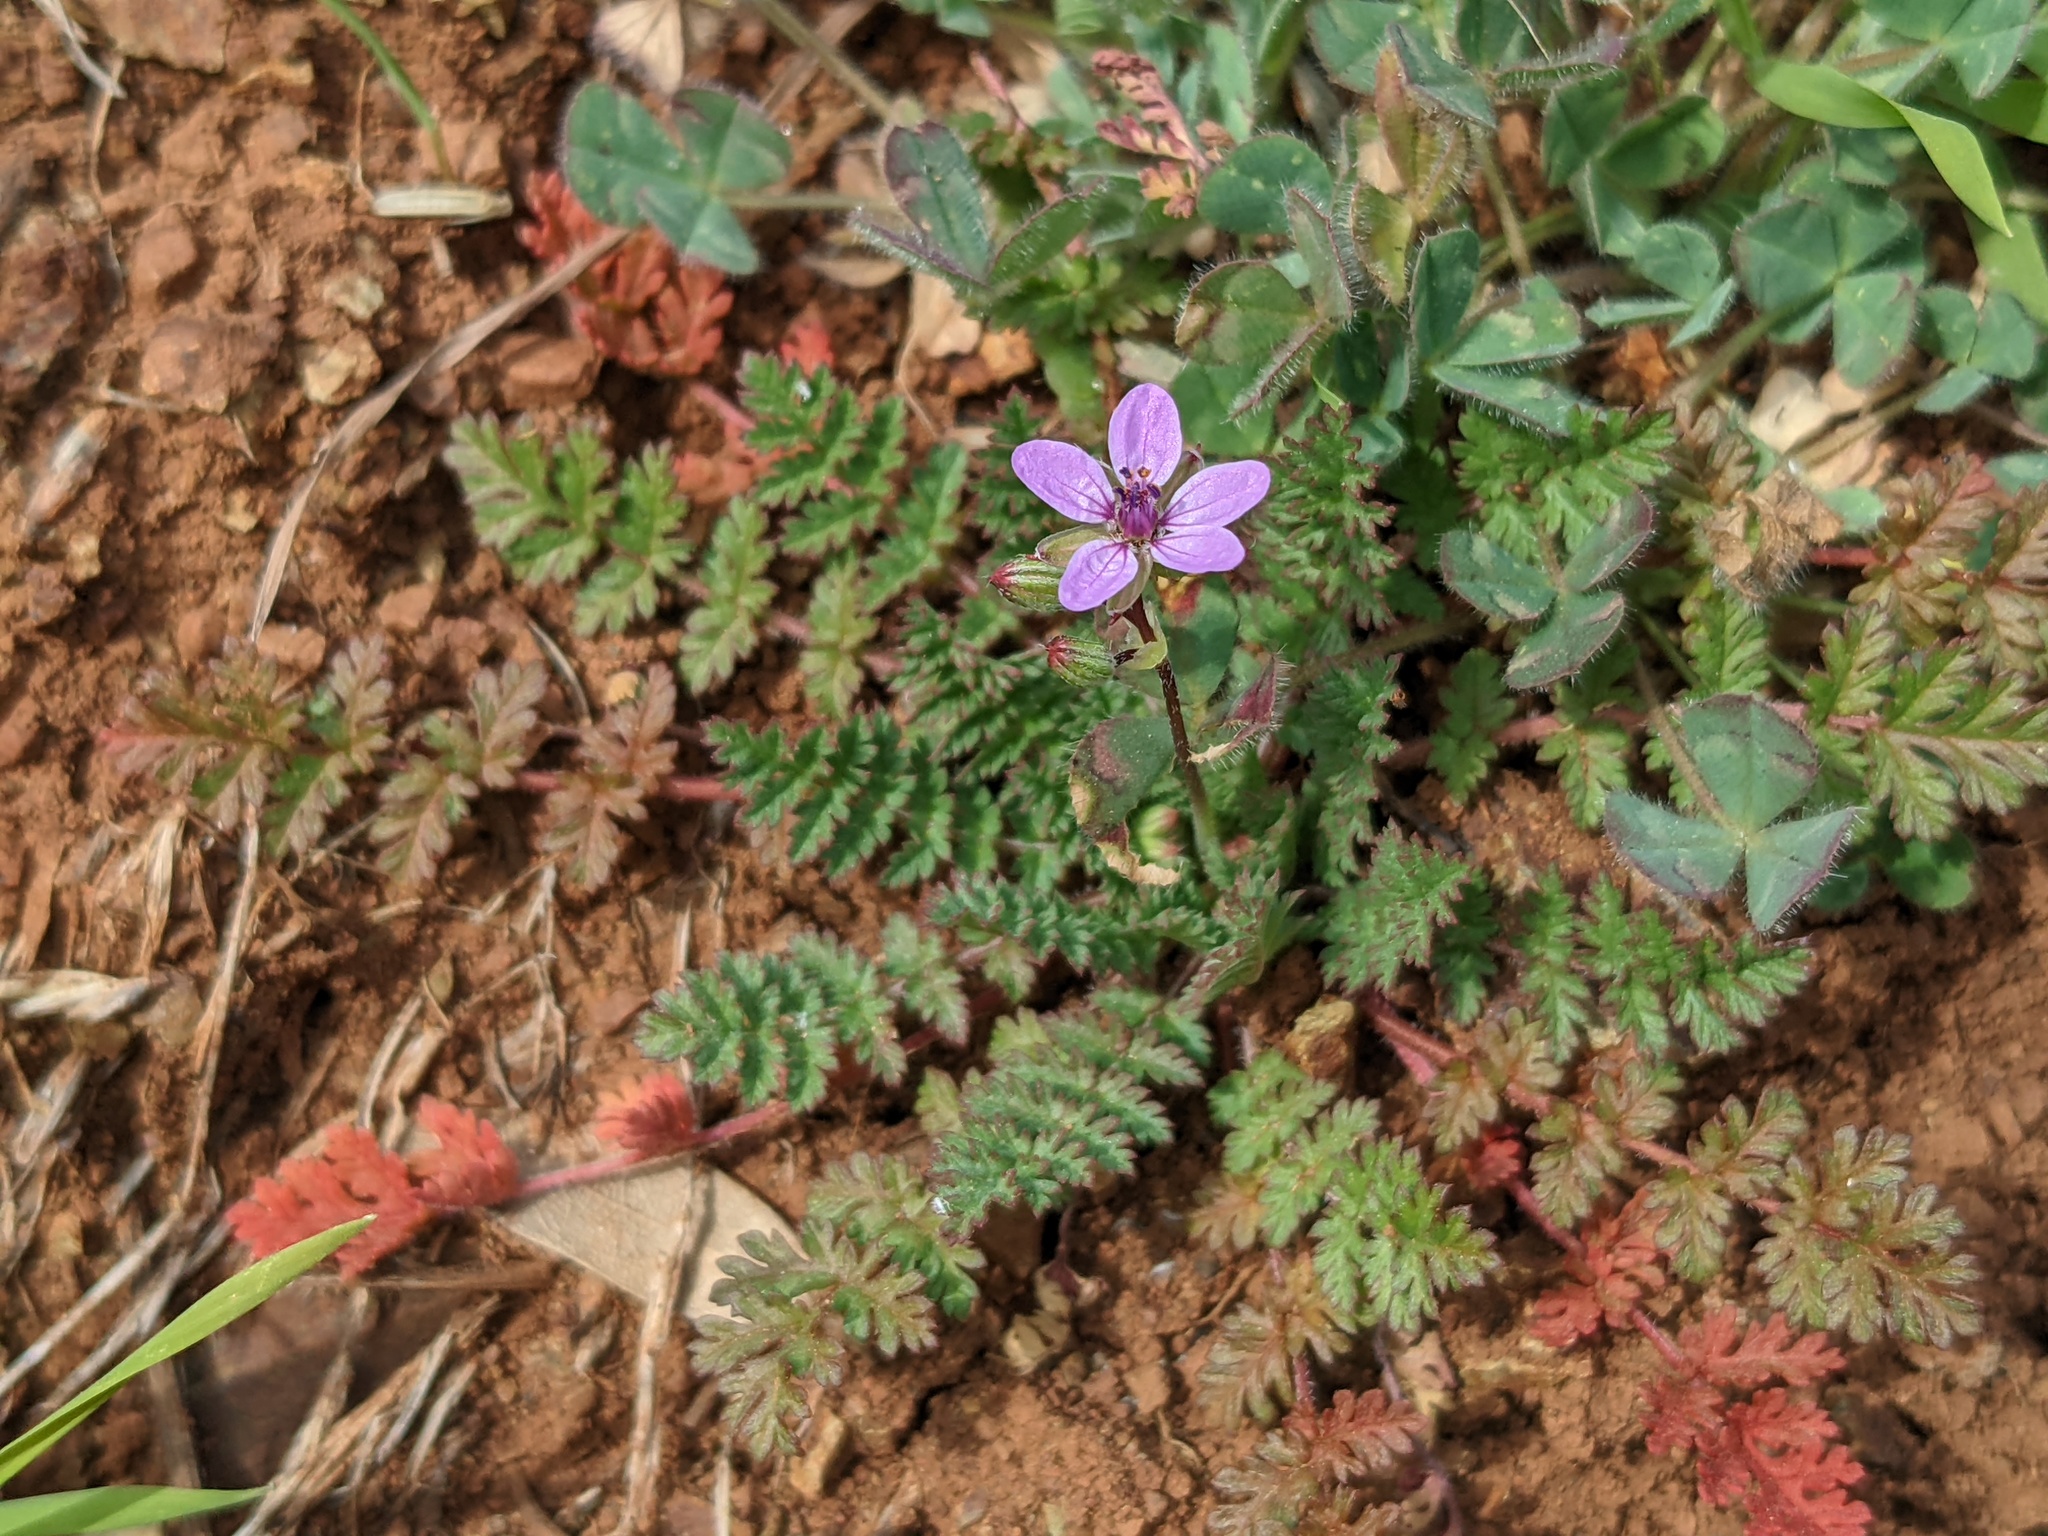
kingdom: Plantae
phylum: Tracheophyta
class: Magnoliopsida
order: Geraniales
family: Geraniaceae
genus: Erodium
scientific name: Erodium cicutarium
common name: Common stork's-bill
